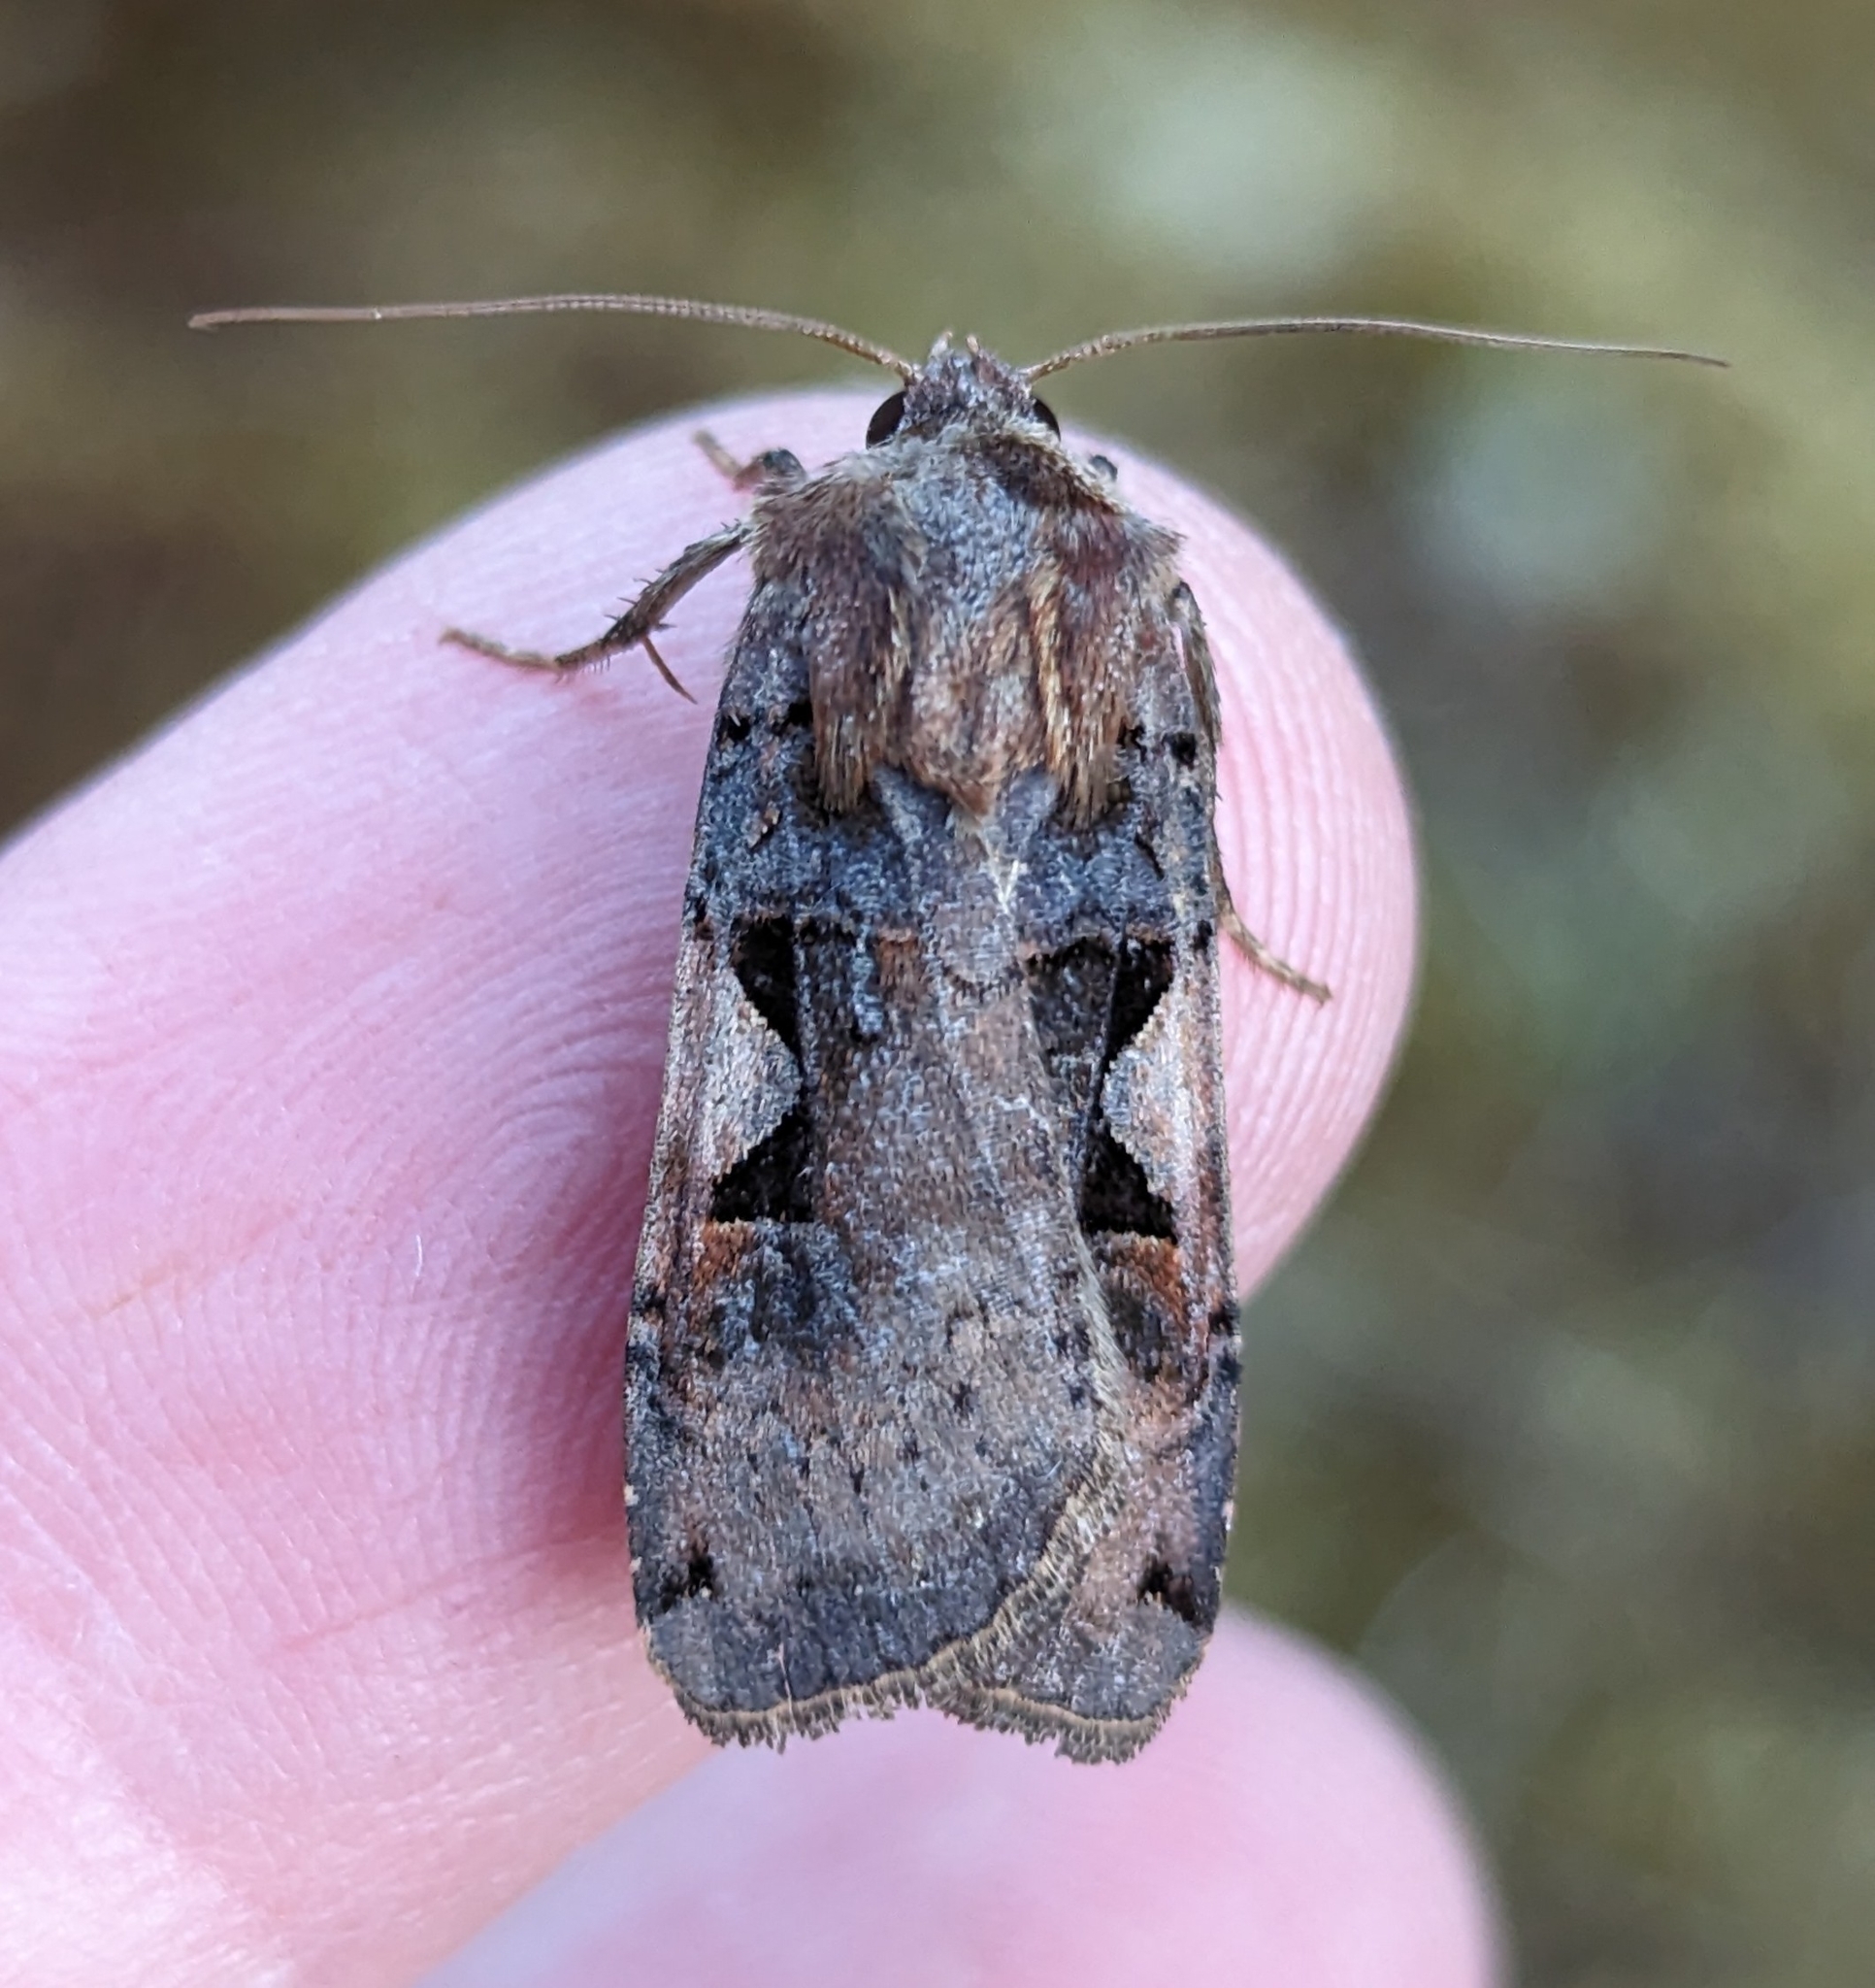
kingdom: Animalia
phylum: Arthropoda
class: Insecta
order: Lepidoptera
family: Noctuidae
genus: Xestia
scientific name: Xestia c-nigrum
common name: Setaceous hebrew character
